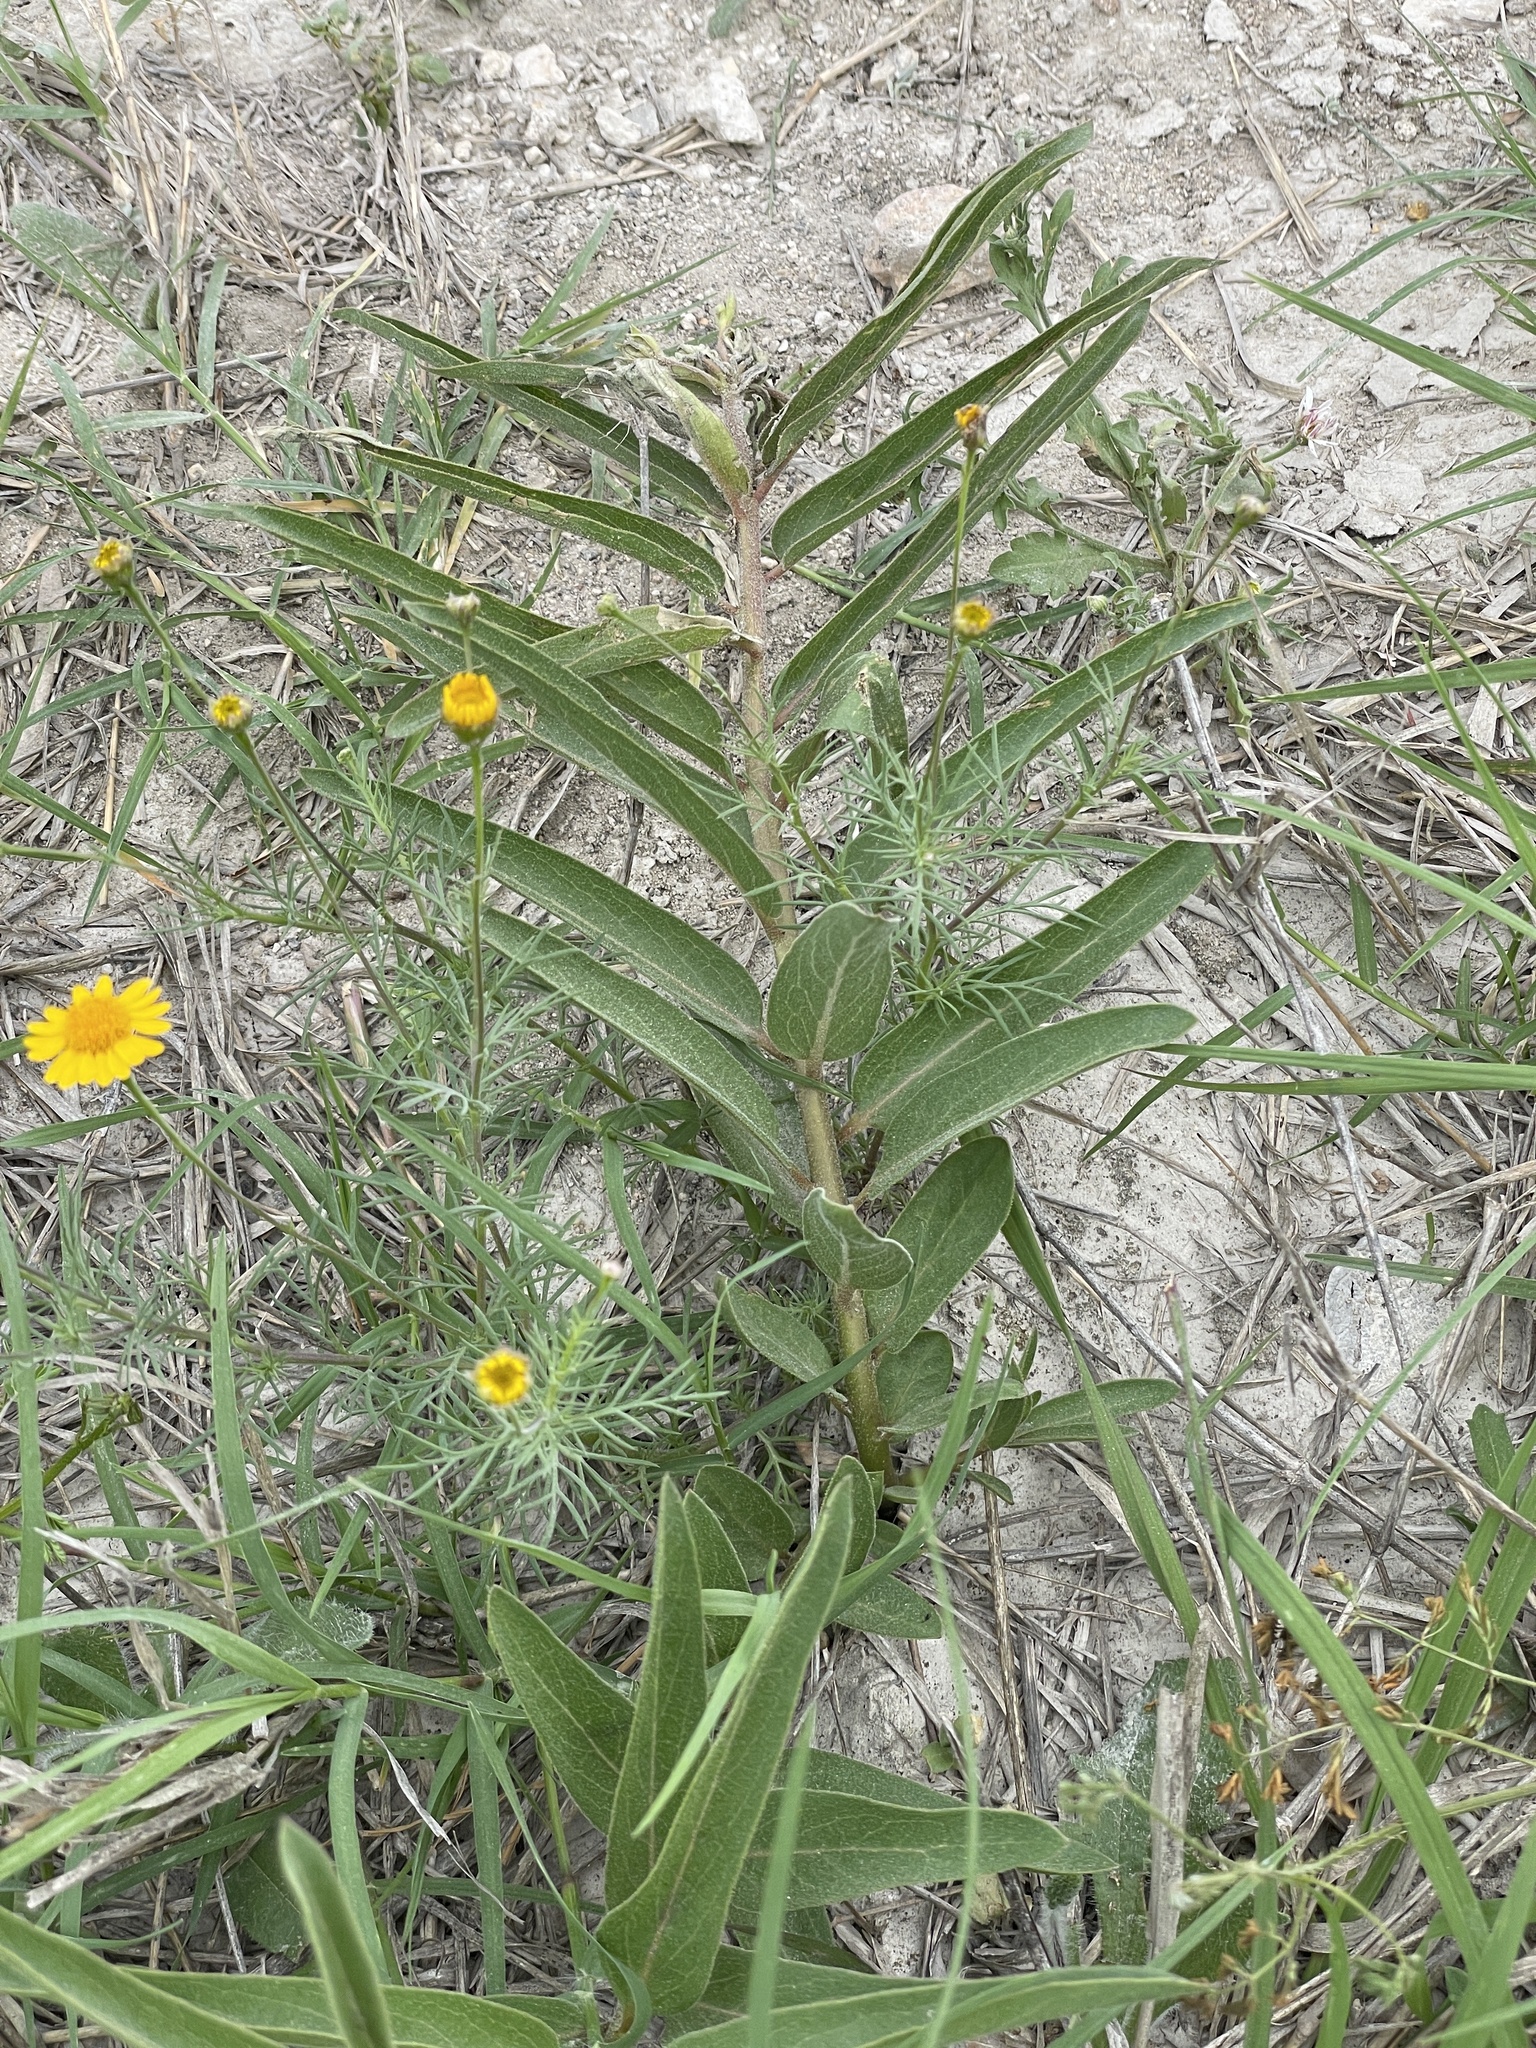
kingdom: Plantae
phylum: Tracheophyta
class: Magnoliopsida
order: Gentianales
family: Apocynaceae
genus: Asclepias
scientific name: Asclepias asperula
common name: Antelope horns
